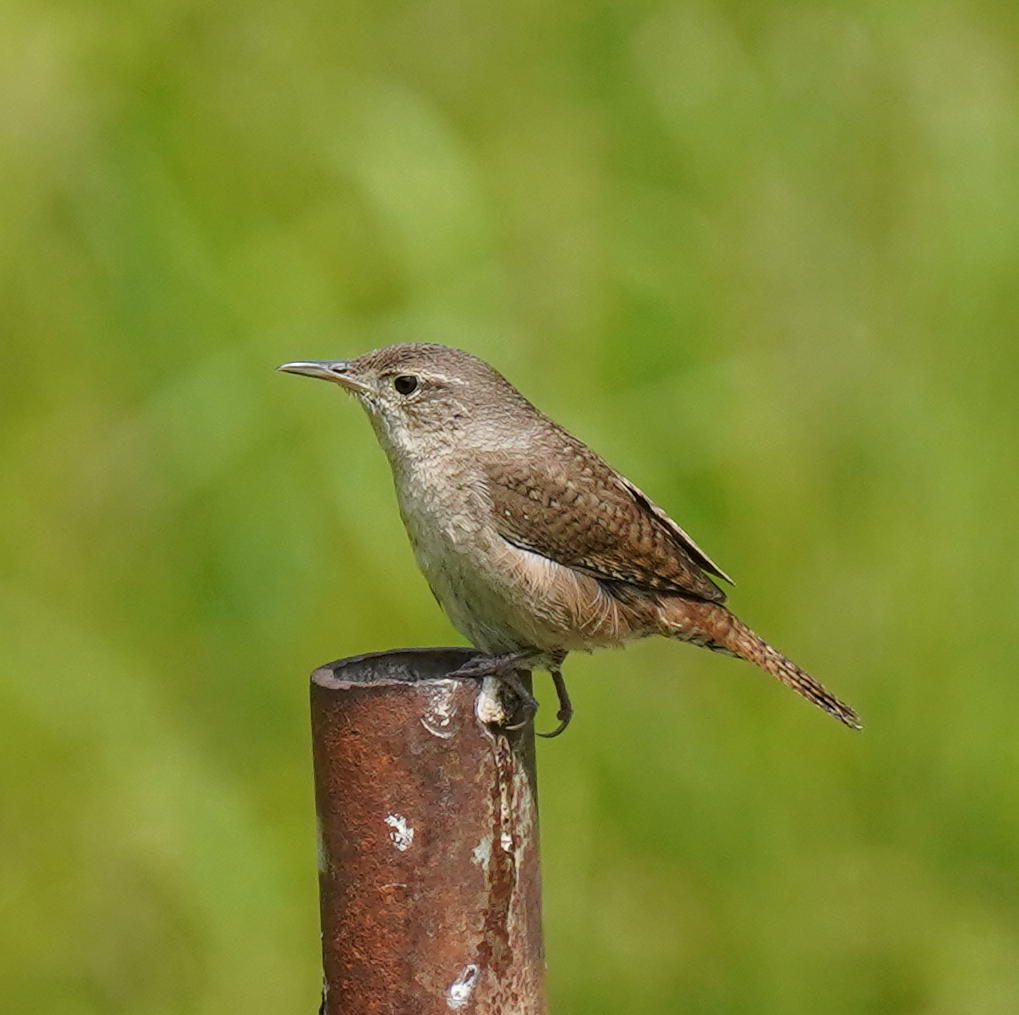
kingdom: Animalia
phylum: Chordata
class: Aves
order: Passeriformes
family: Troglodytidae
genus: Troglodytes
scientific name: Troglodytes aedon
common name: House wren
